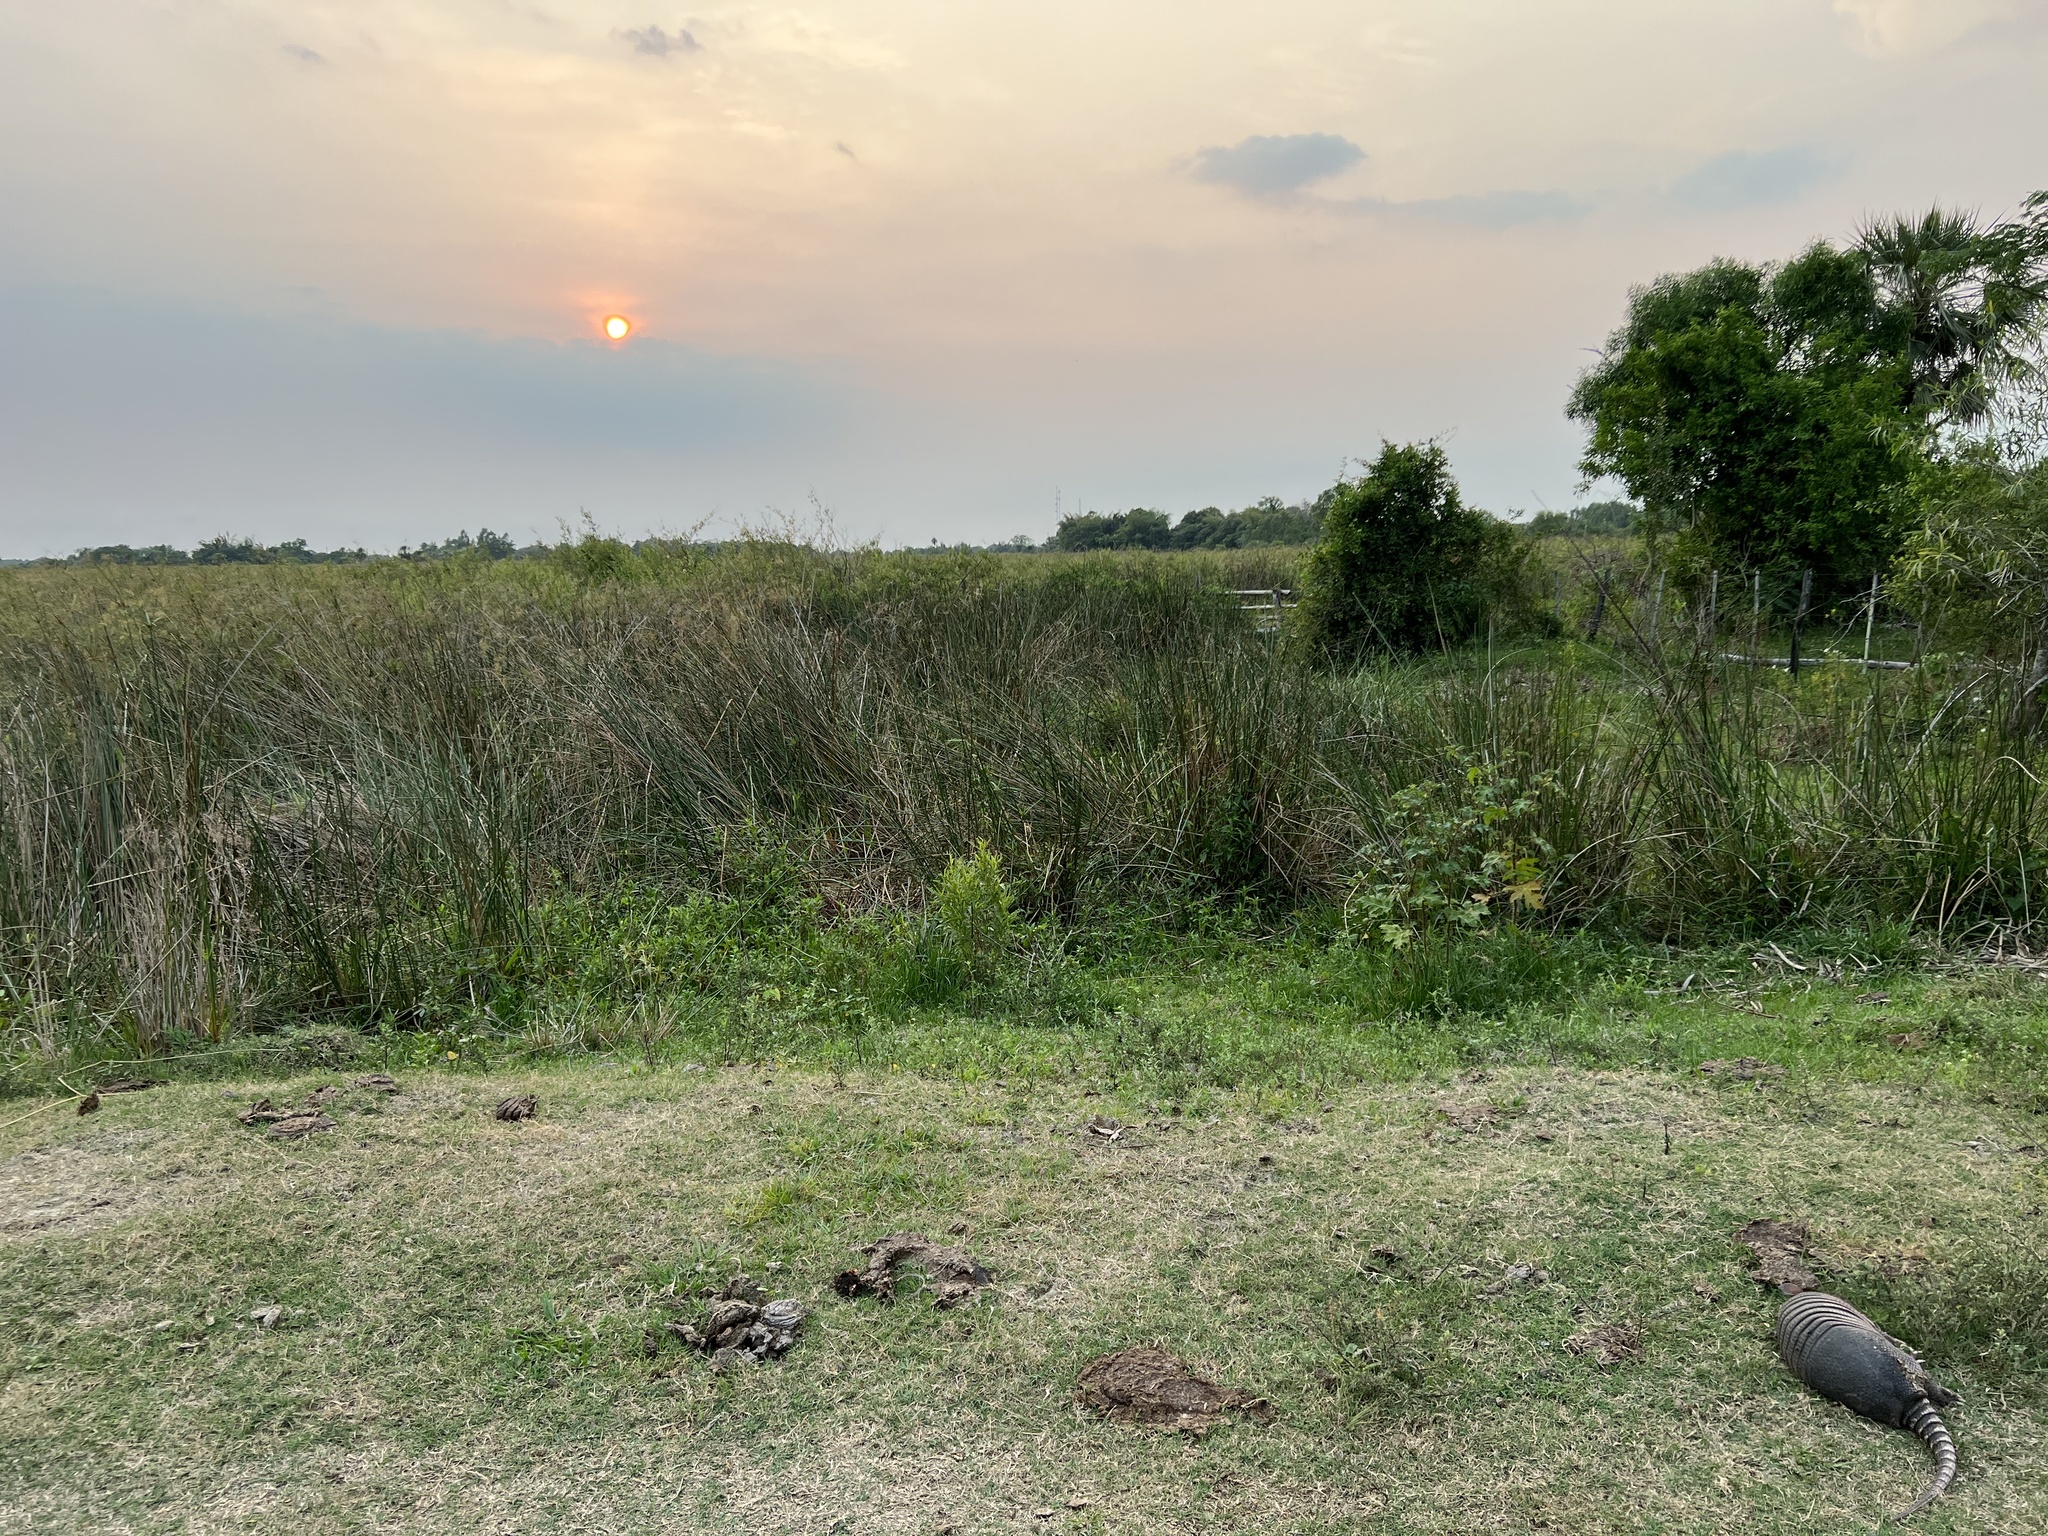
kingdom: Animalia
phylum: Chordata
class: Mammalia
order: Cingulata
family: Dasypodidae
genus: Dasypus
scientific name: Dasypus novemcinctus
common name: Nine-banded armadillo
